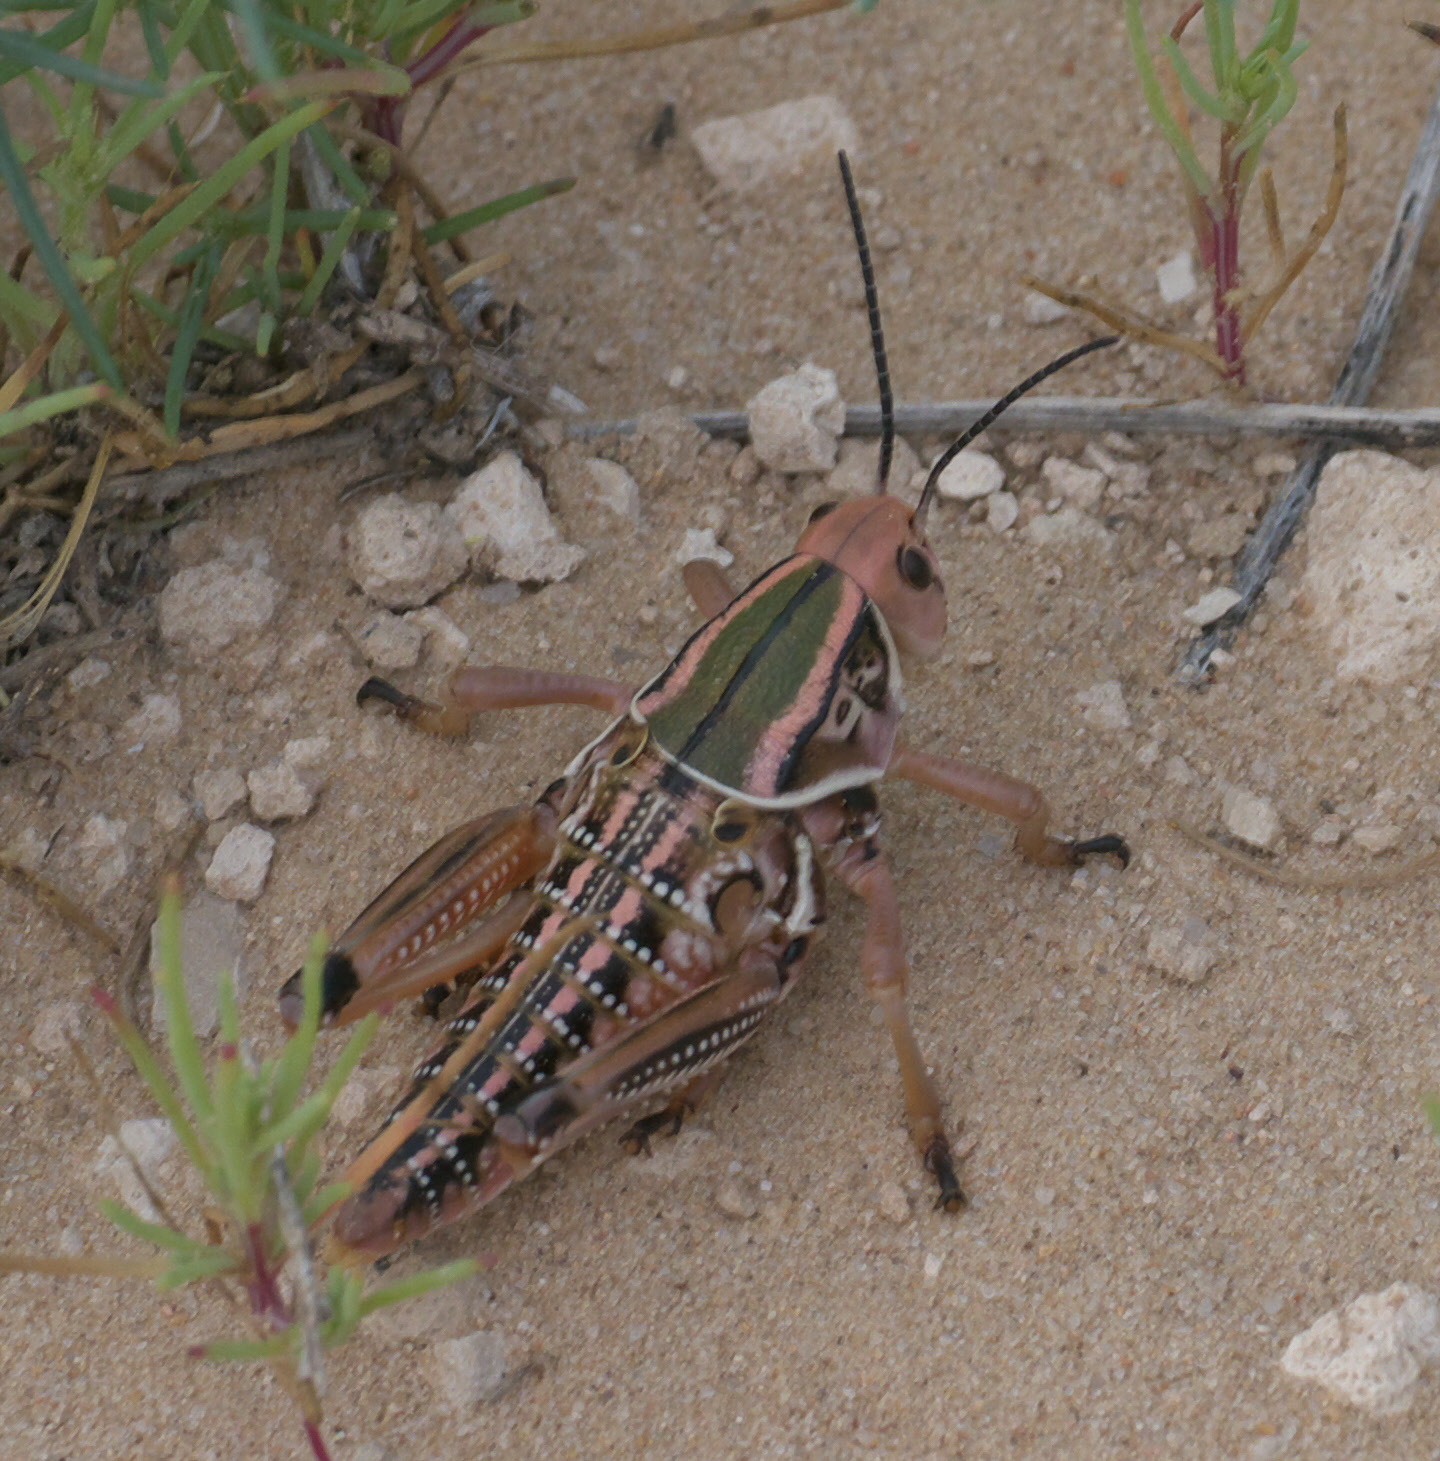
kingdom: Animalia
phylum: Arthropoda
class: Insecta
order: Orthoptera
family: Romaleidae
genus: Brachystola
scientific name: Brachystola magna
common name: Plains lubber grasshopper
